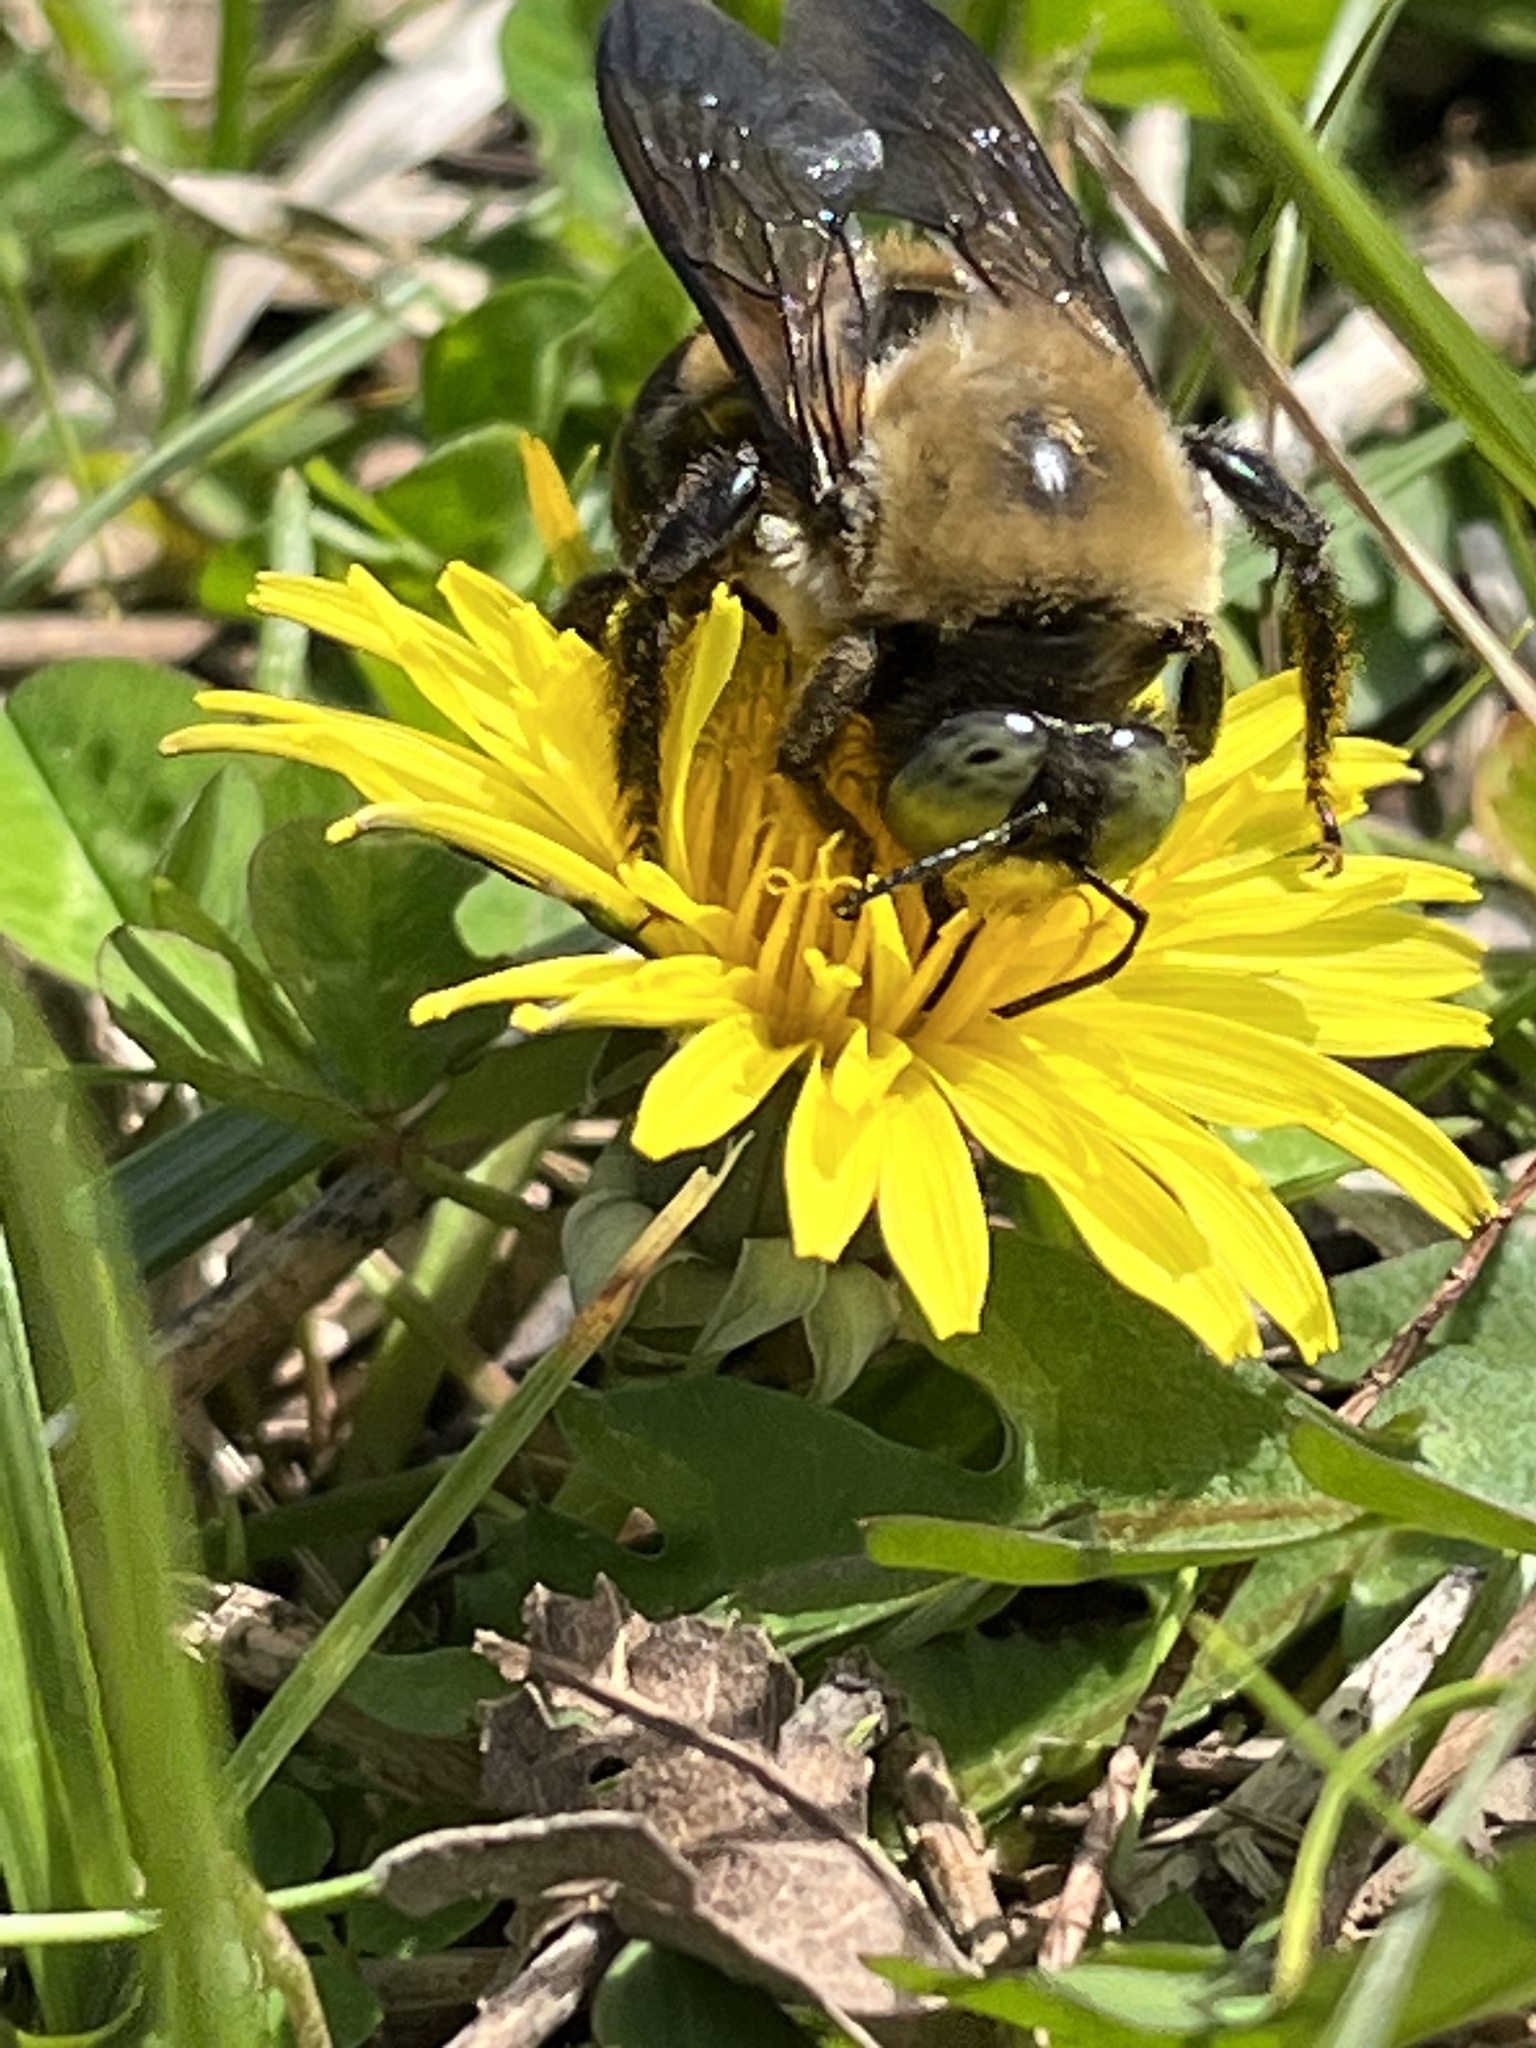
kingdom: Animalia
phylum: Arthropoda
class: Insecta
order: Hymenoptera
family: Apidae
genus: Xylocopa
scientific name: Xylocopa virginica
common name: Carpenter bee
